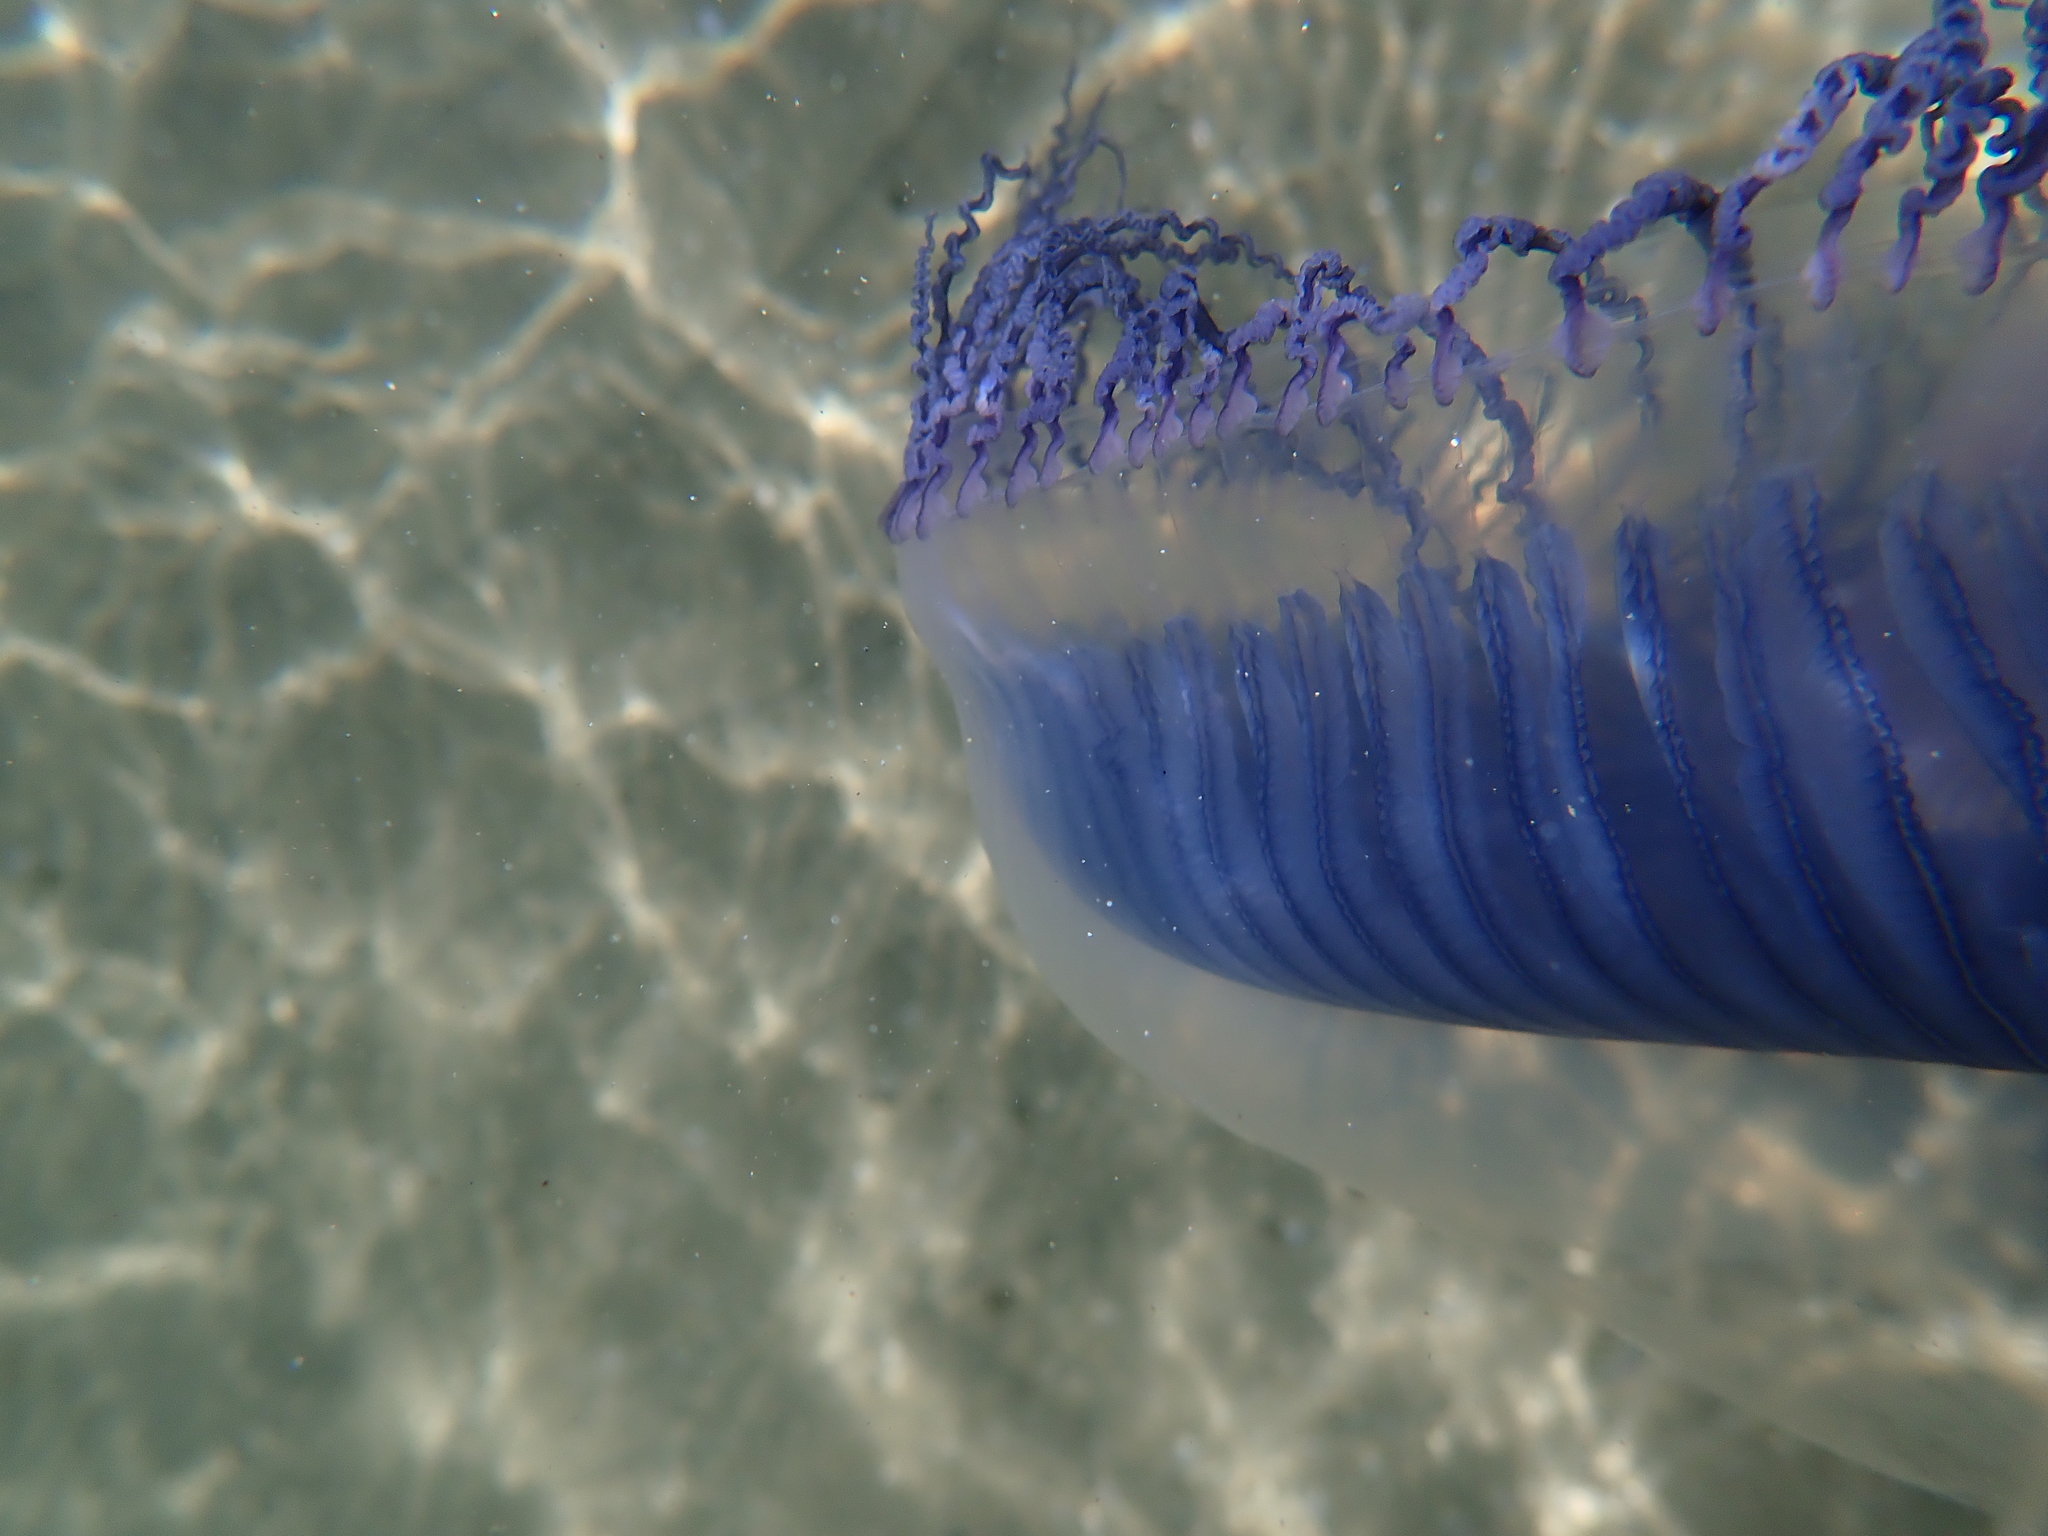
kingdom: Animalia
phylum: Cnidaria
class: Hydrozoa
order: Leptothecata
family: Aequoreidae
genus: Aequorea
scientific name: Aequorea forskalea
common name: Many-ribbed jellyfish
